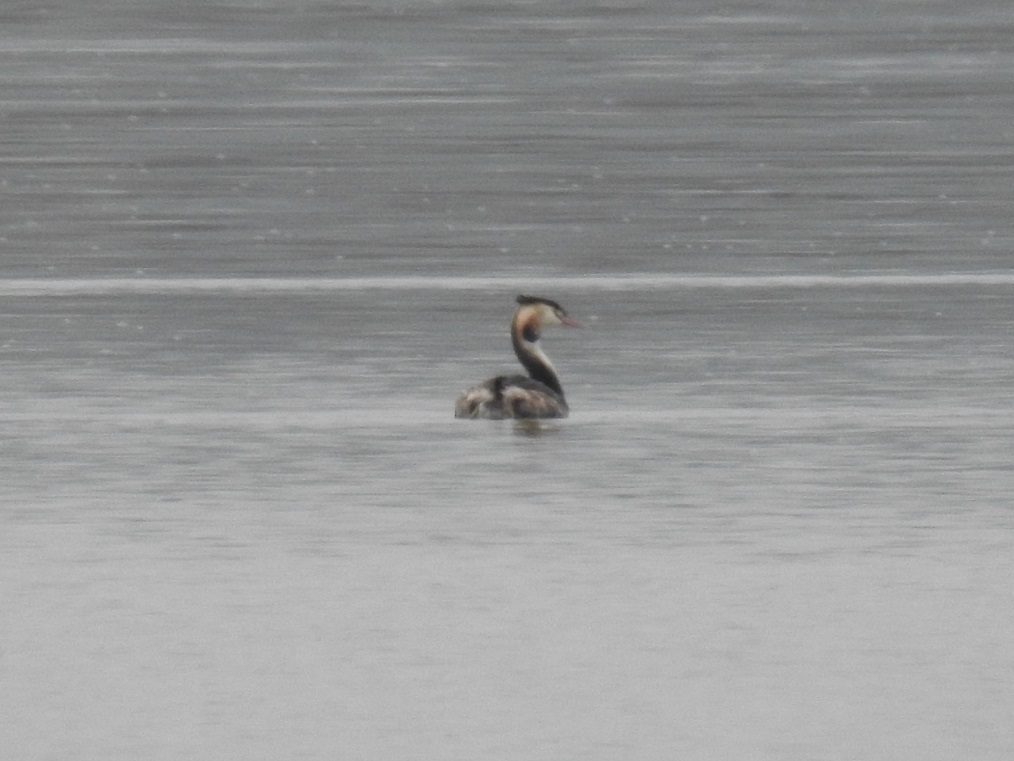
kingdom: Animalia
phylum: Chordata
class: Aves
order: Podicipediformes
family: Podicipedidae
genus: Podiceps
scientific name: Podiceps cristatus
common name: Great crested grebe
